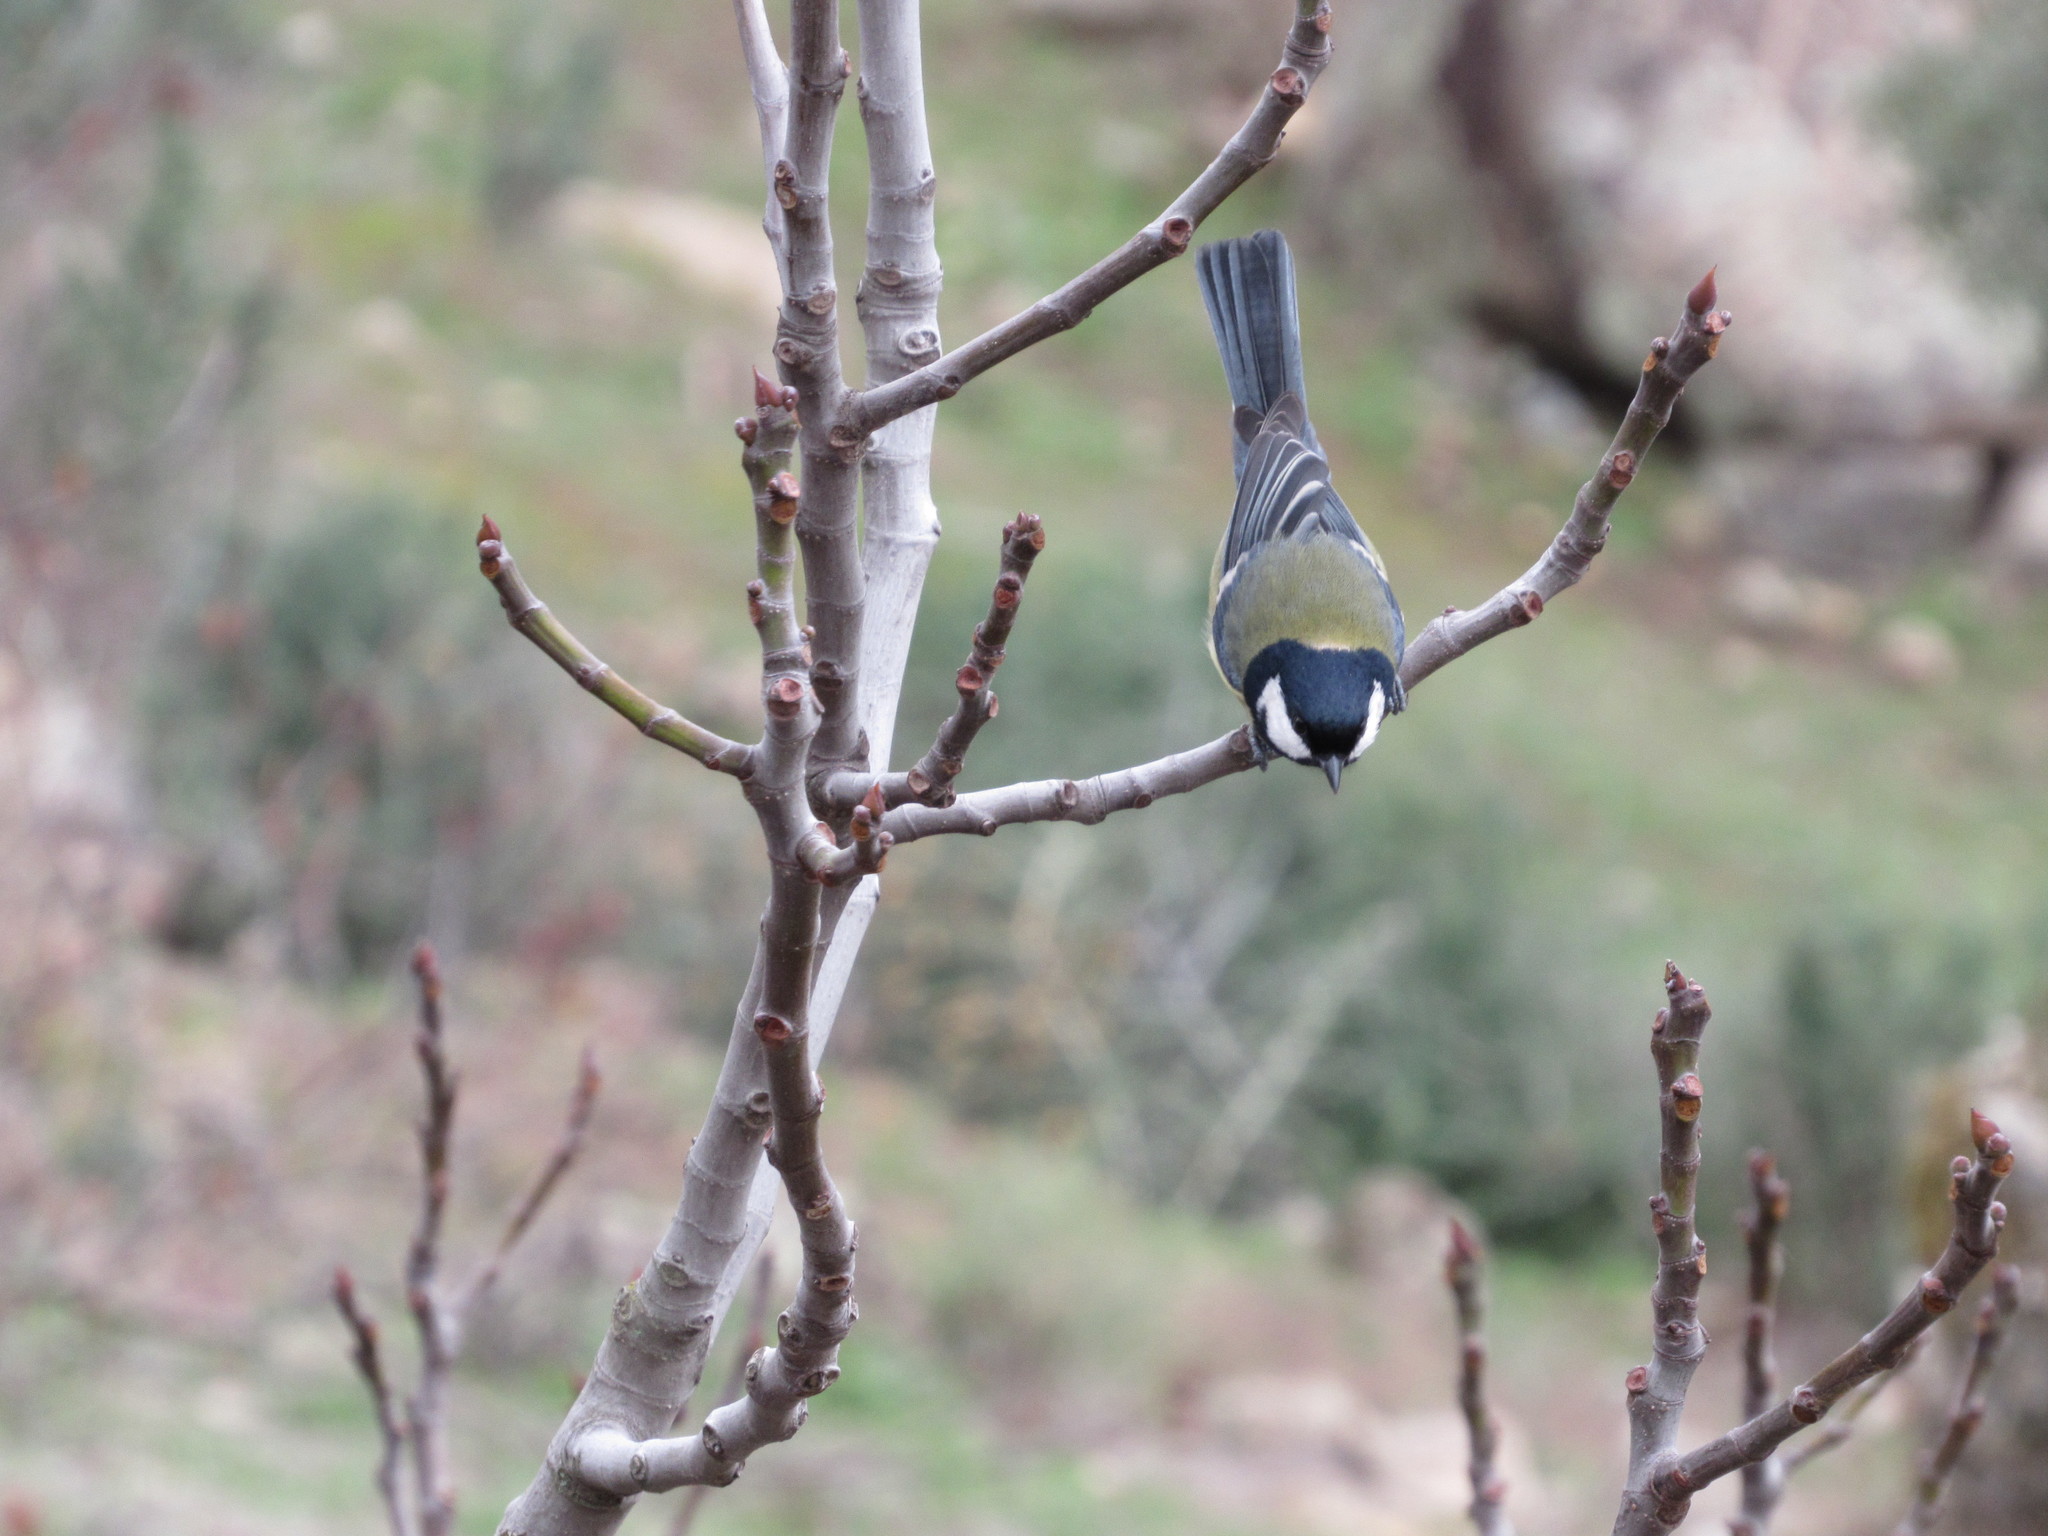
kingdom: Animalia
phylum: Chordata
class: Aves
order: Passeriformes
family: Paridae
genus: Parus
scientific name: Parus major
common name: Great tit
